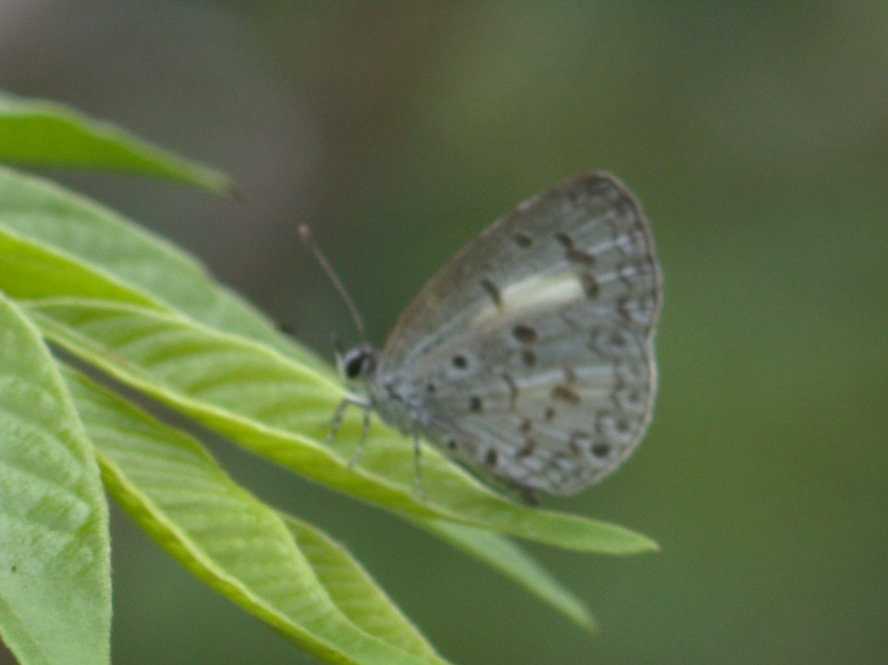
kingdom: Animalia
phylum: Arthropoda
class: Insecta
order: Lepidoptera
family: Lycaenidae
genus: Acytolepis
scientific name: Acytolepis puspa
